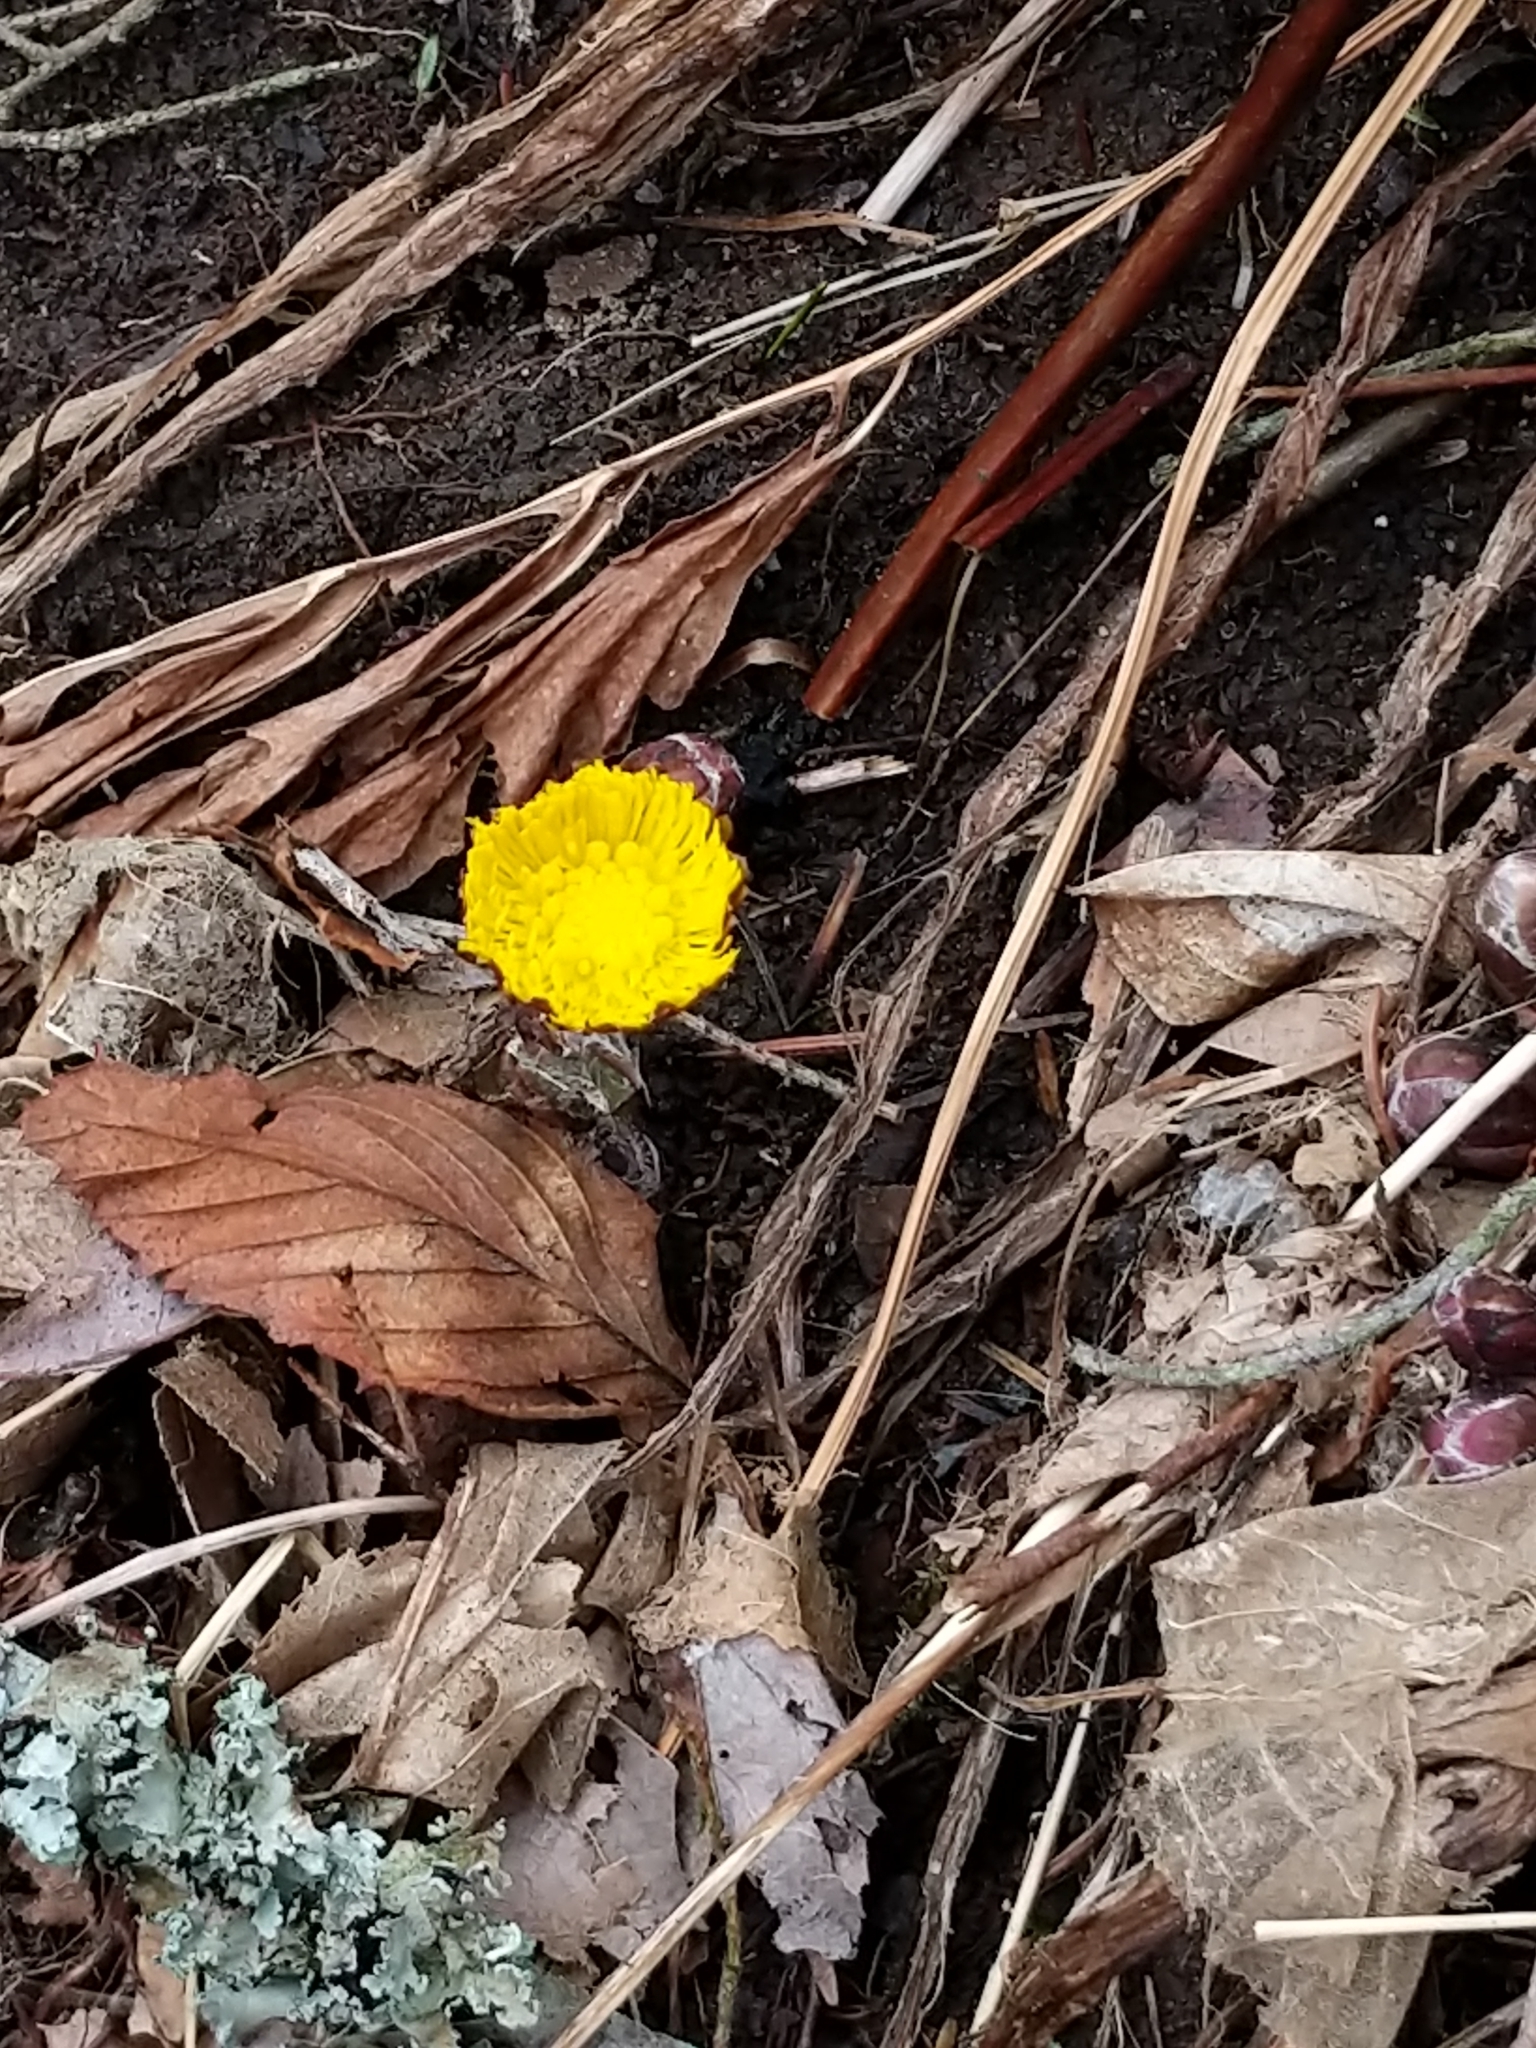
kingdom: Plantae
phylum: Tracheophyta
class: Magnoliopsida
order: Asterales
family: Asteraceae
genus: Tussilago
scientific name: Tussilago farfara
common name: Coltsfoot
